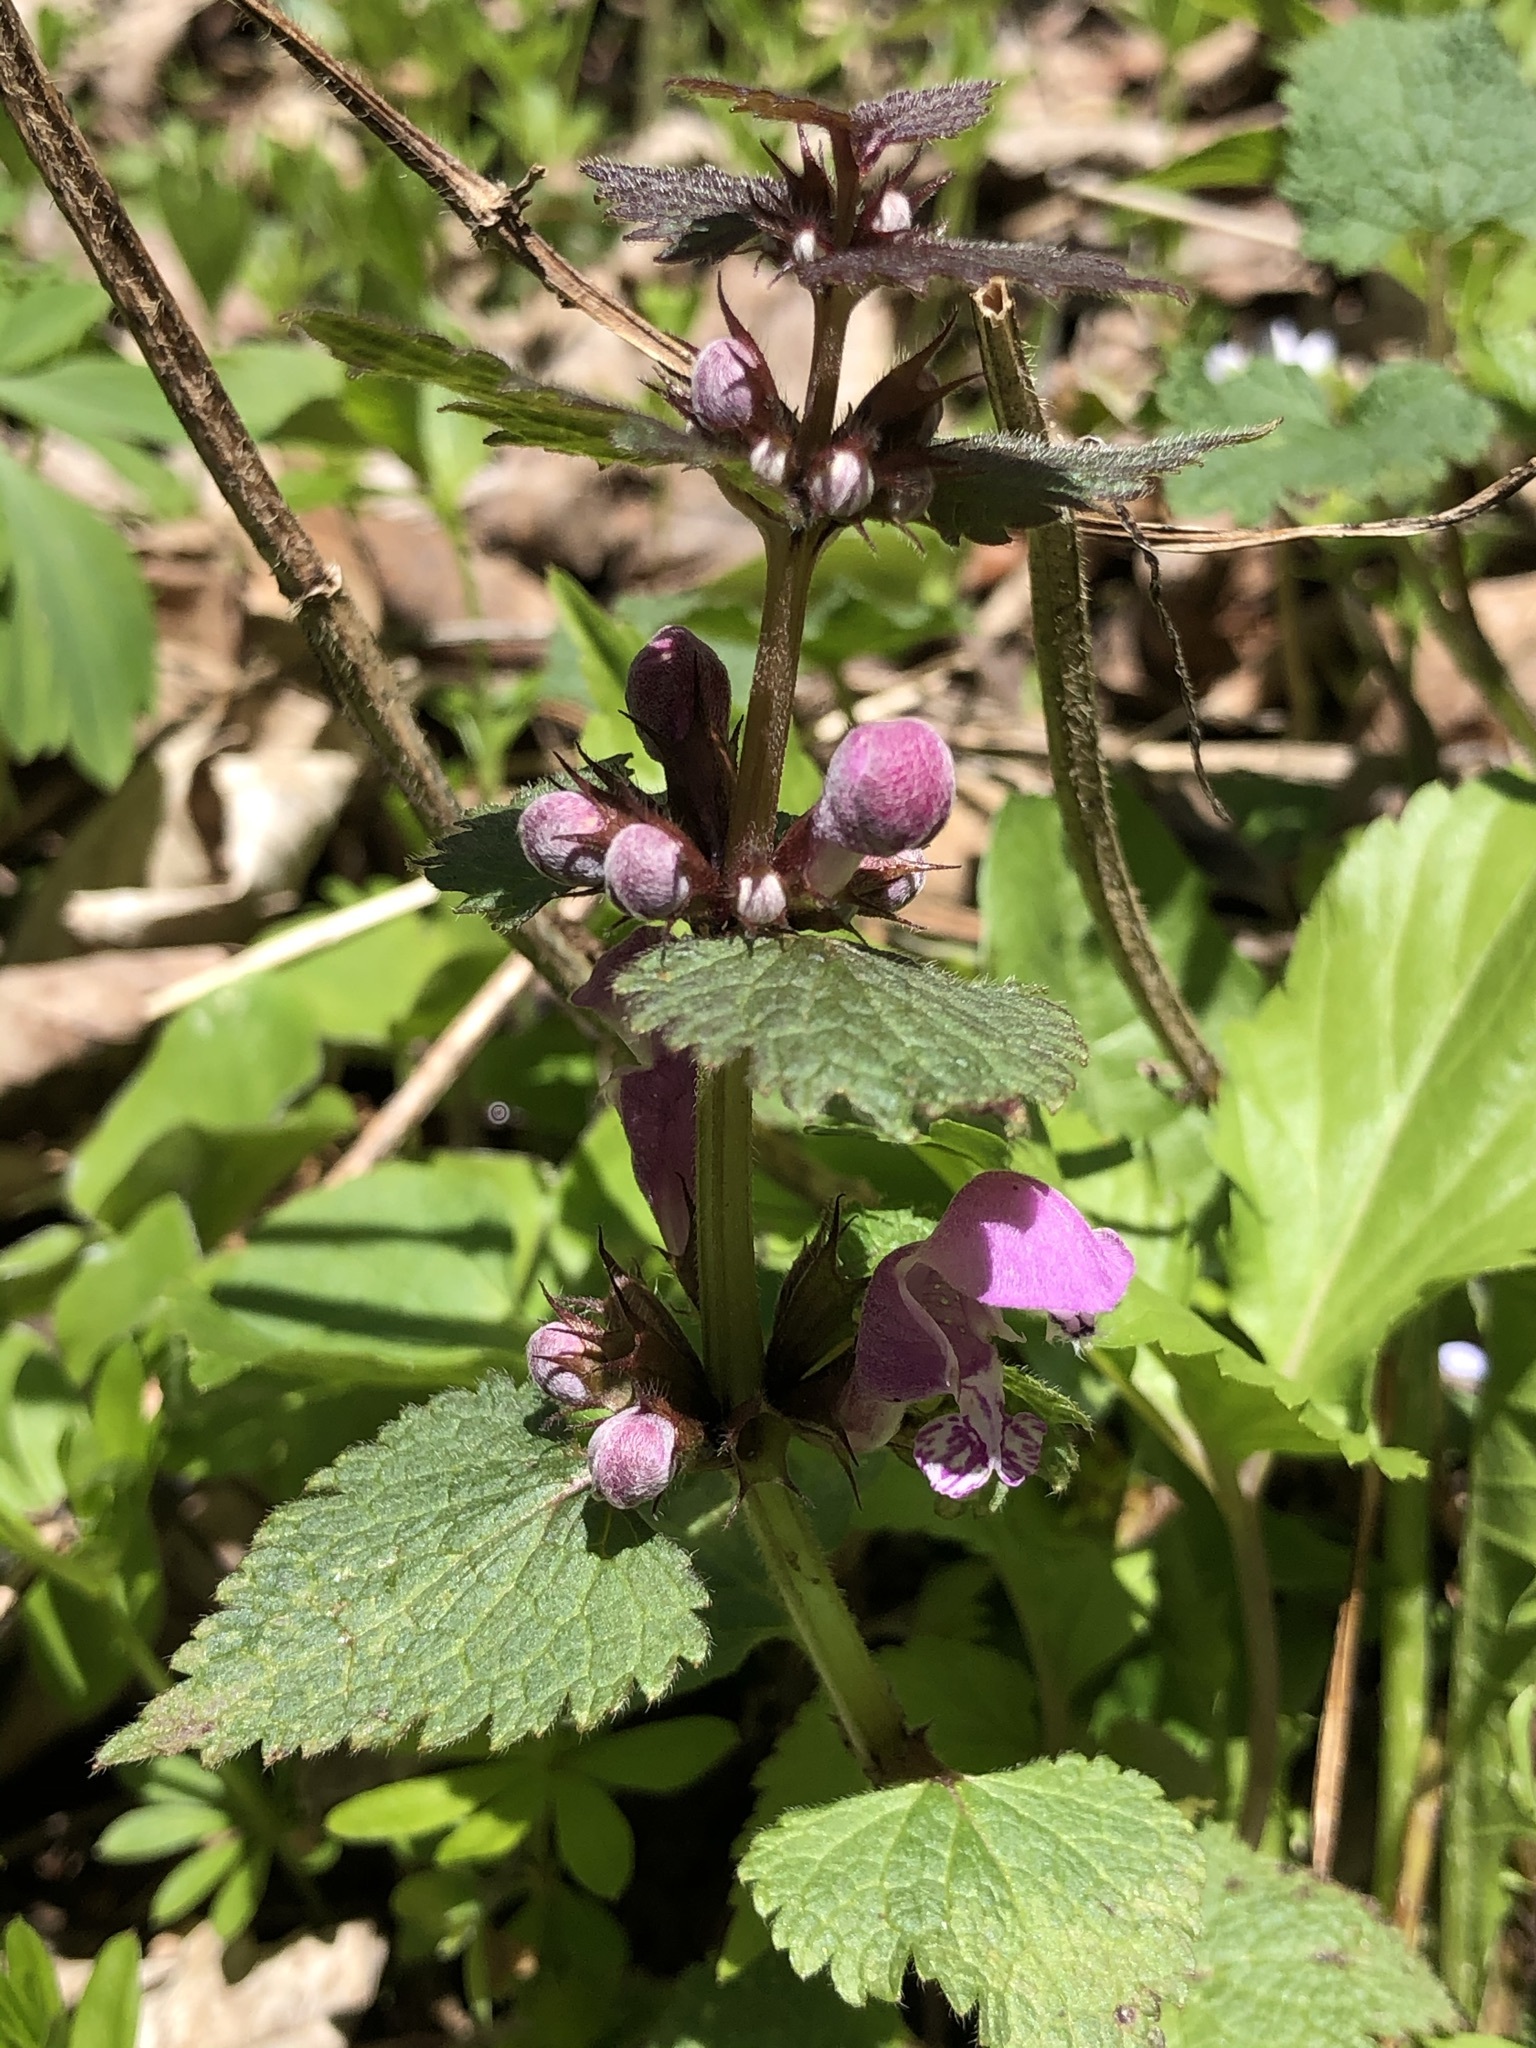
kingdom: Plantae
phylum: Tracheophyta
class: Magnoliopsida
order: Lamiales
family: Lamiaceae
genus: Lamium
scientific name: Lamium maculatum
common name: Spotted dead-nettle
